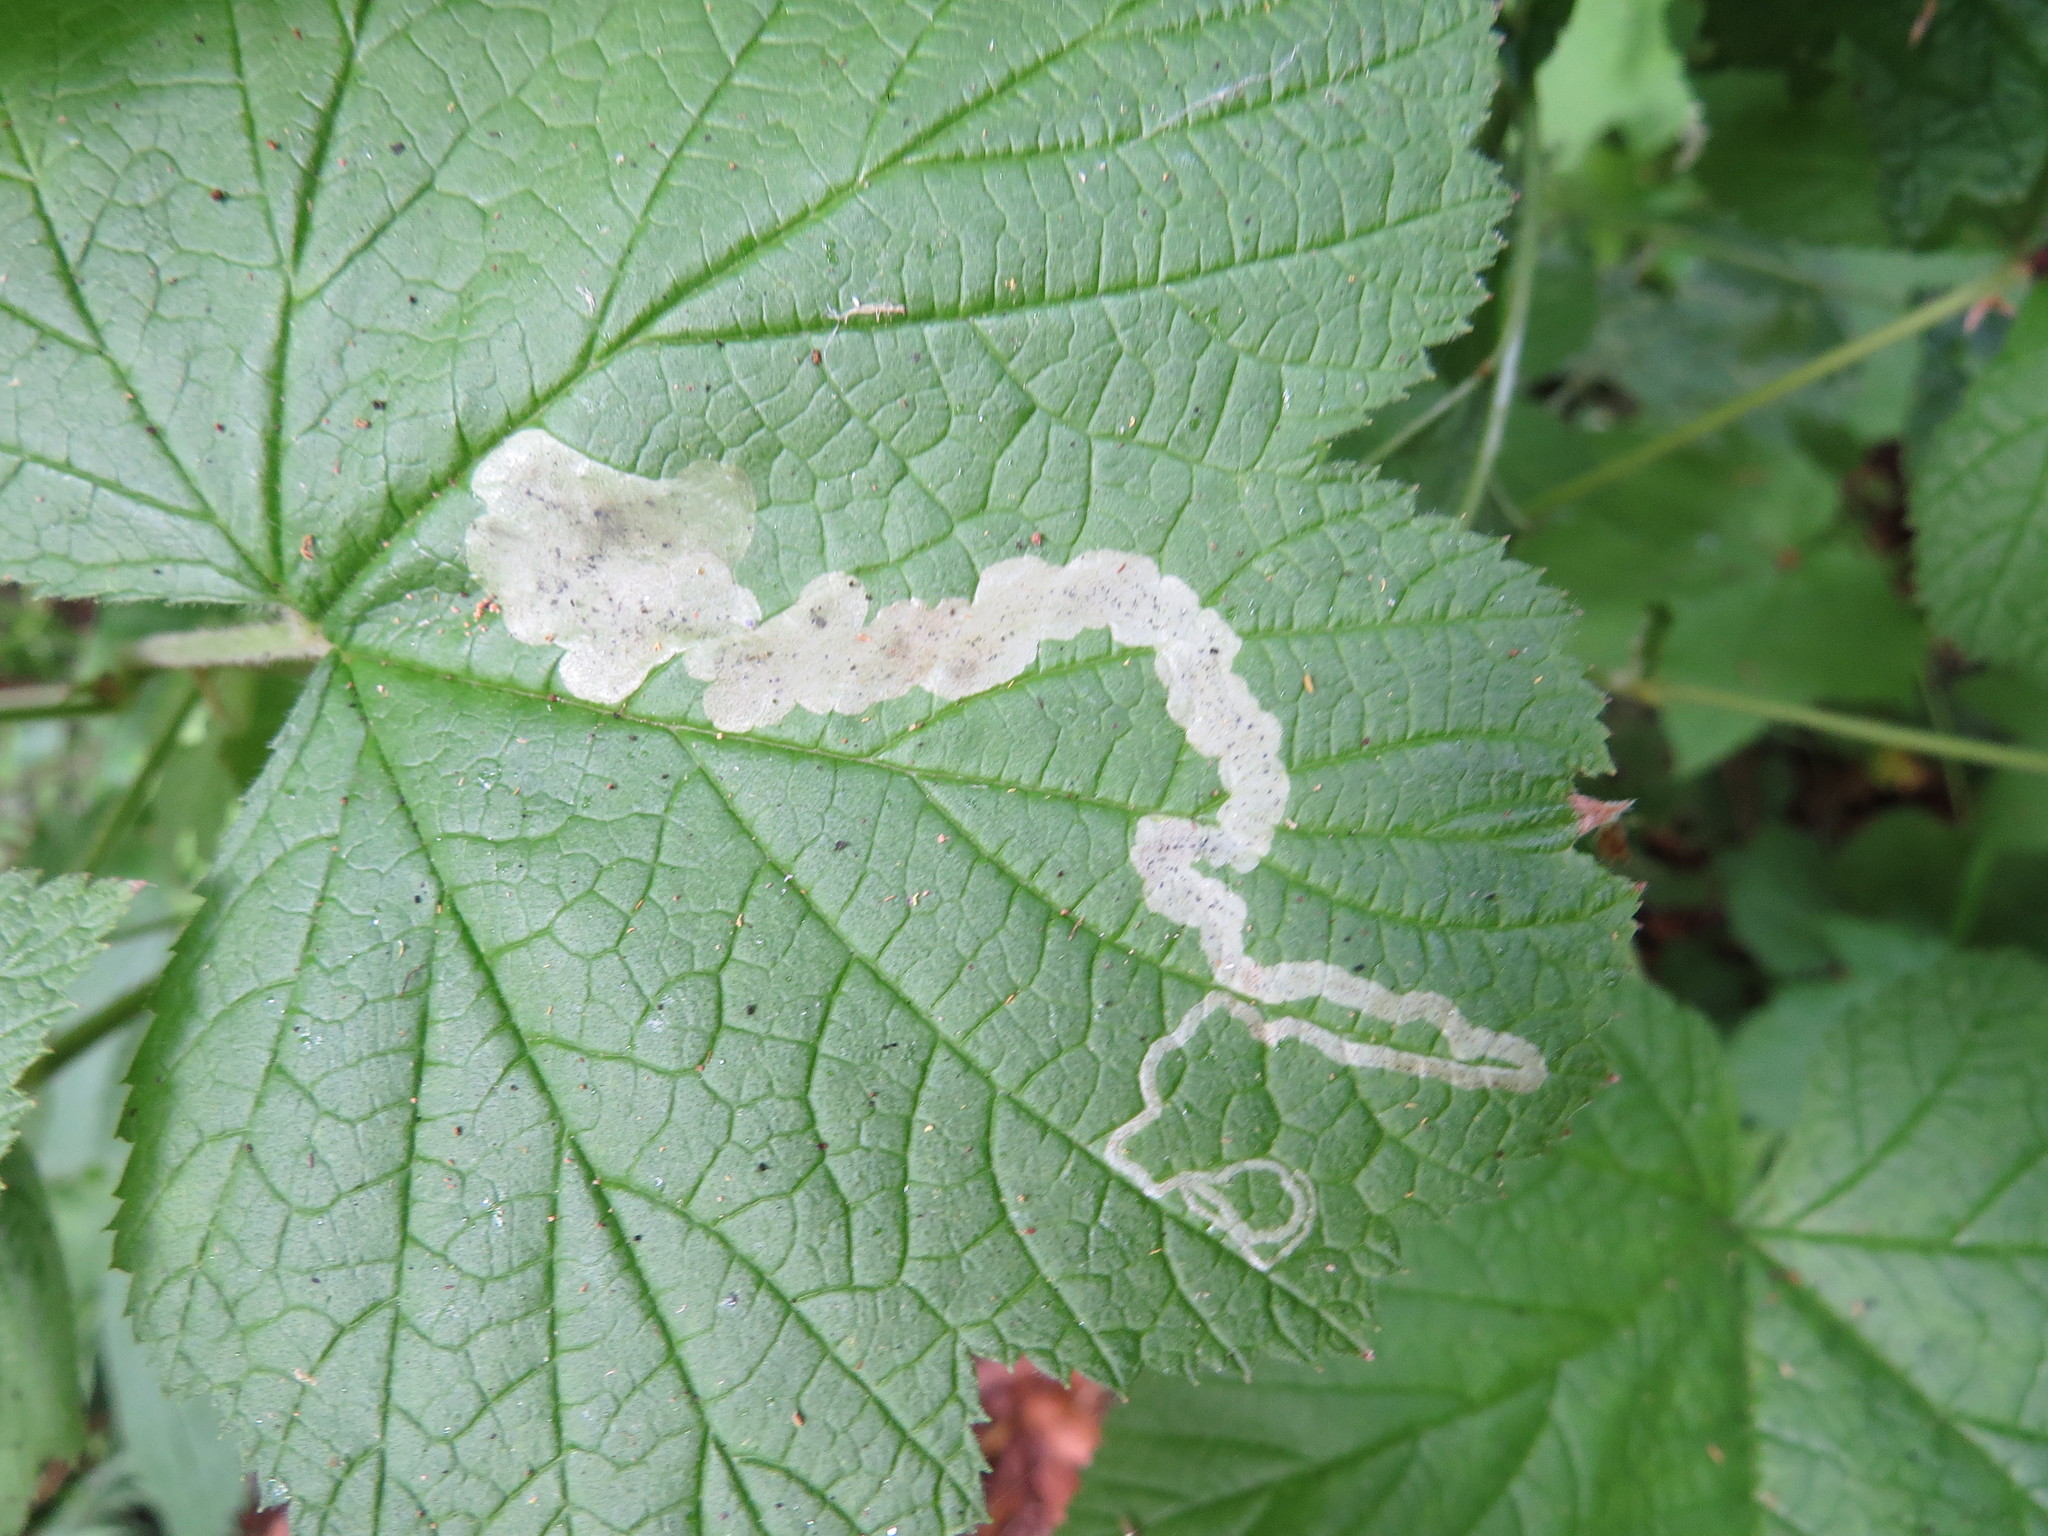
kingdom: Animalia
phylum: Arthropoda
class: Insecta
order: Diptera
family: Agromyzidae
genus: Agromyza
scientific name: Agromyza vockerothi
